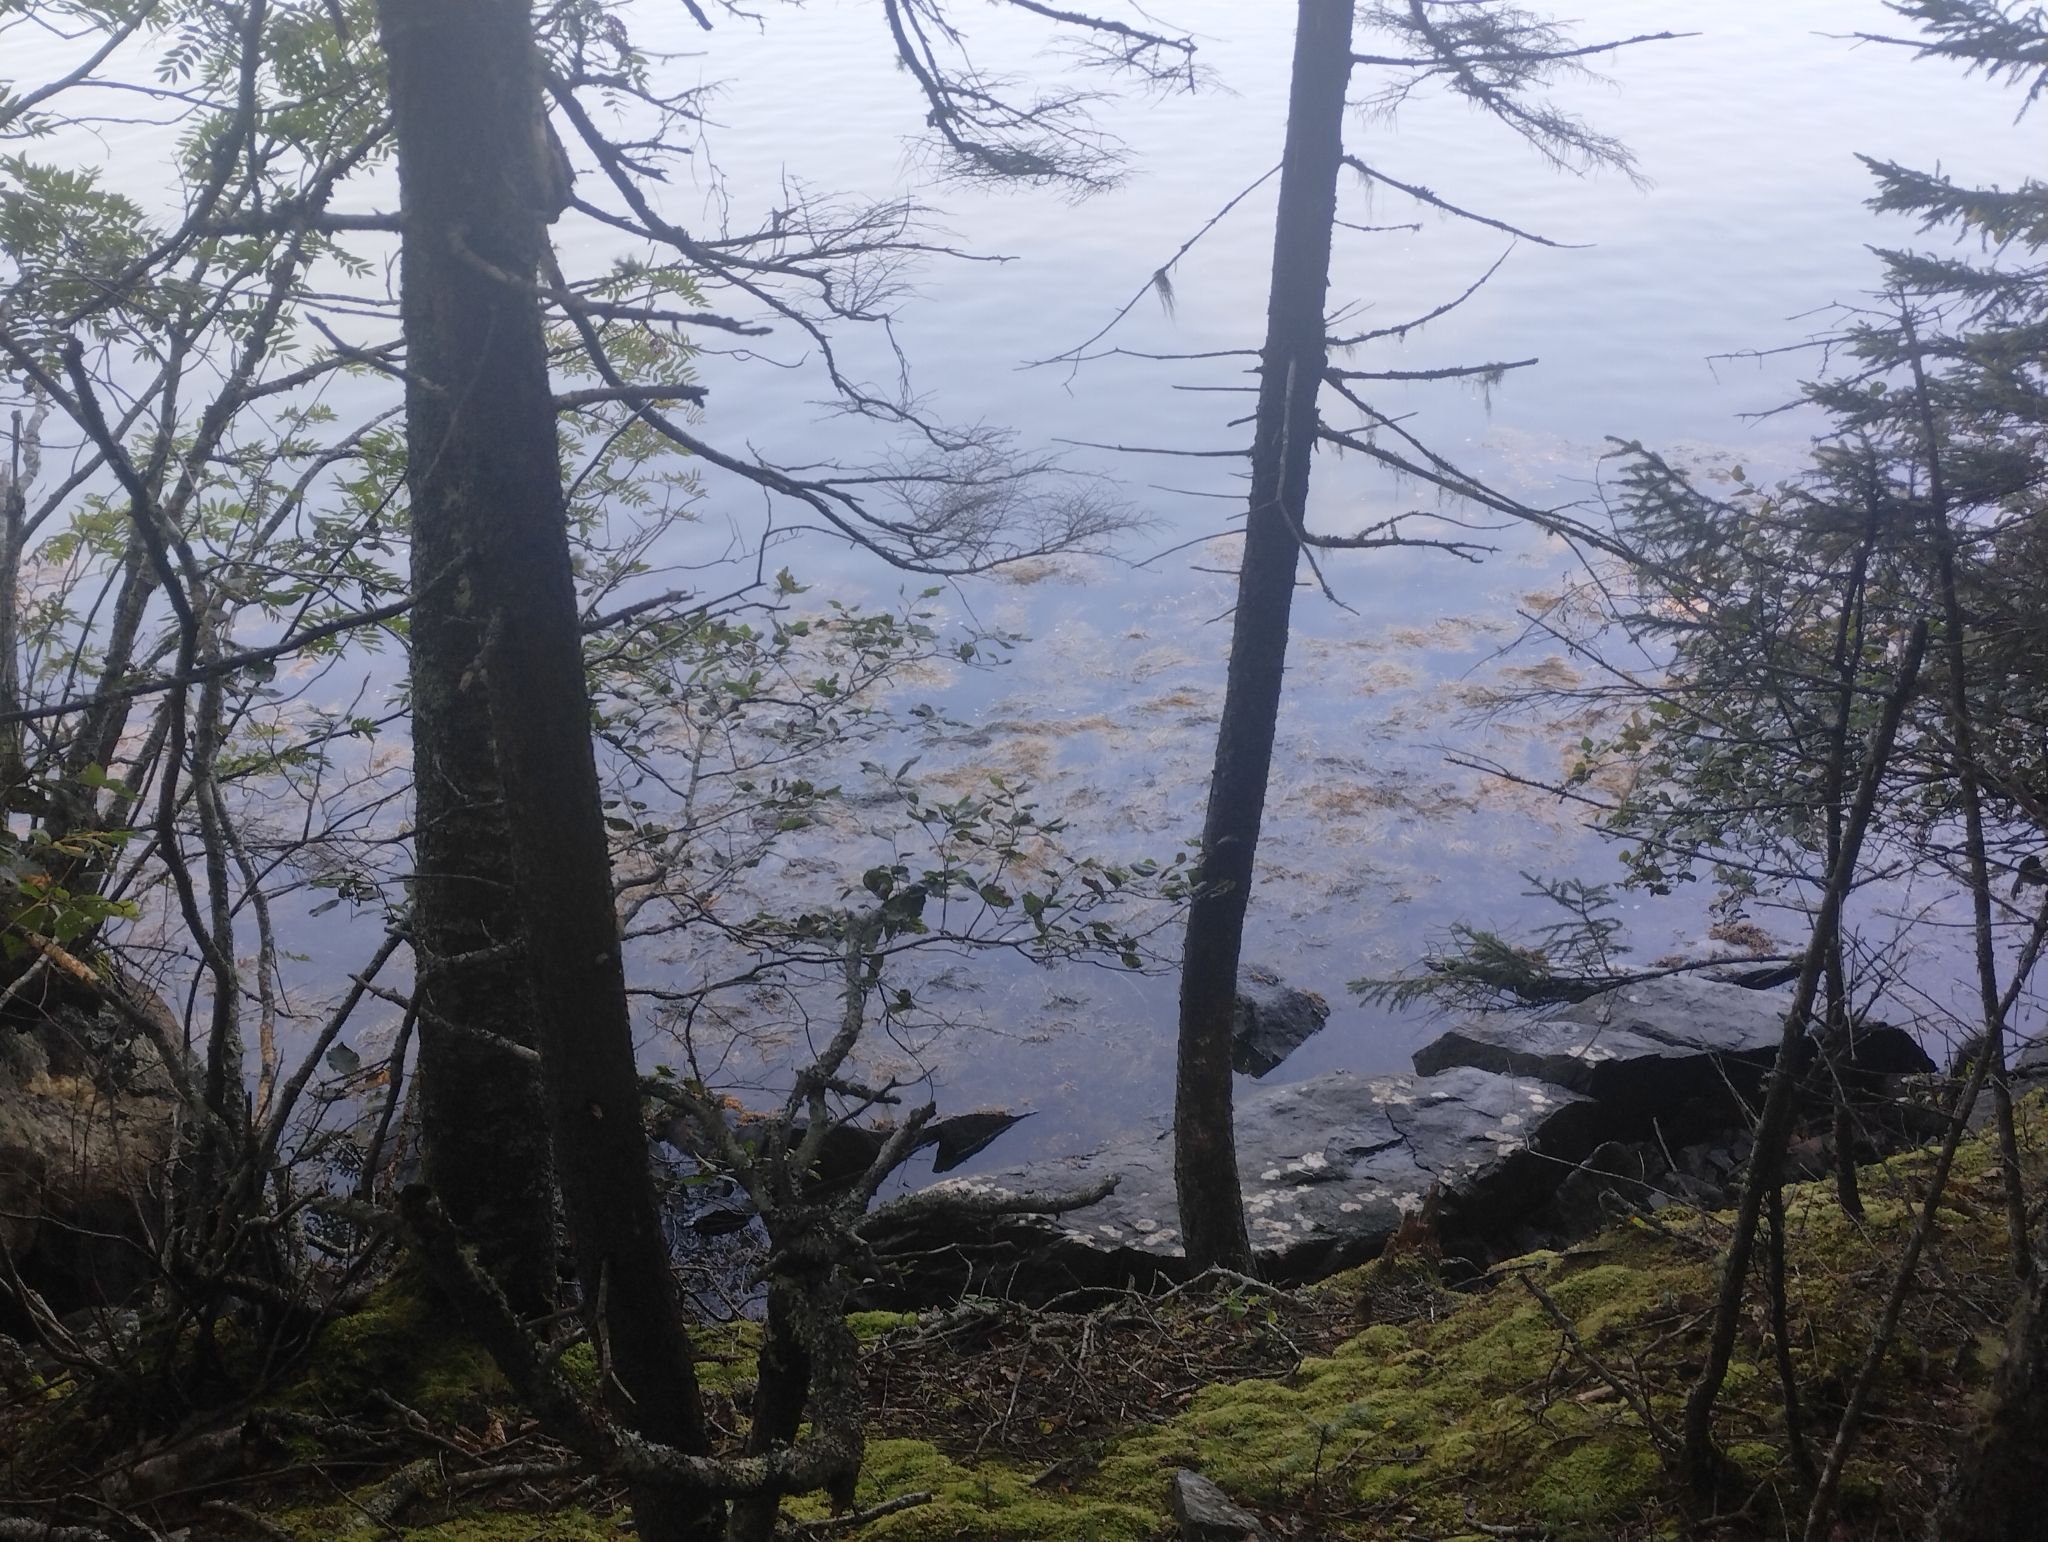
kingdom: Chromista
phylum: Ochrophyta
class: Phaeophyceae
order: Fucales
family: Fucaceae
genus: Ascophyllum
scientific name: Ascophyllum nodosum
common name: Knotted wrack
